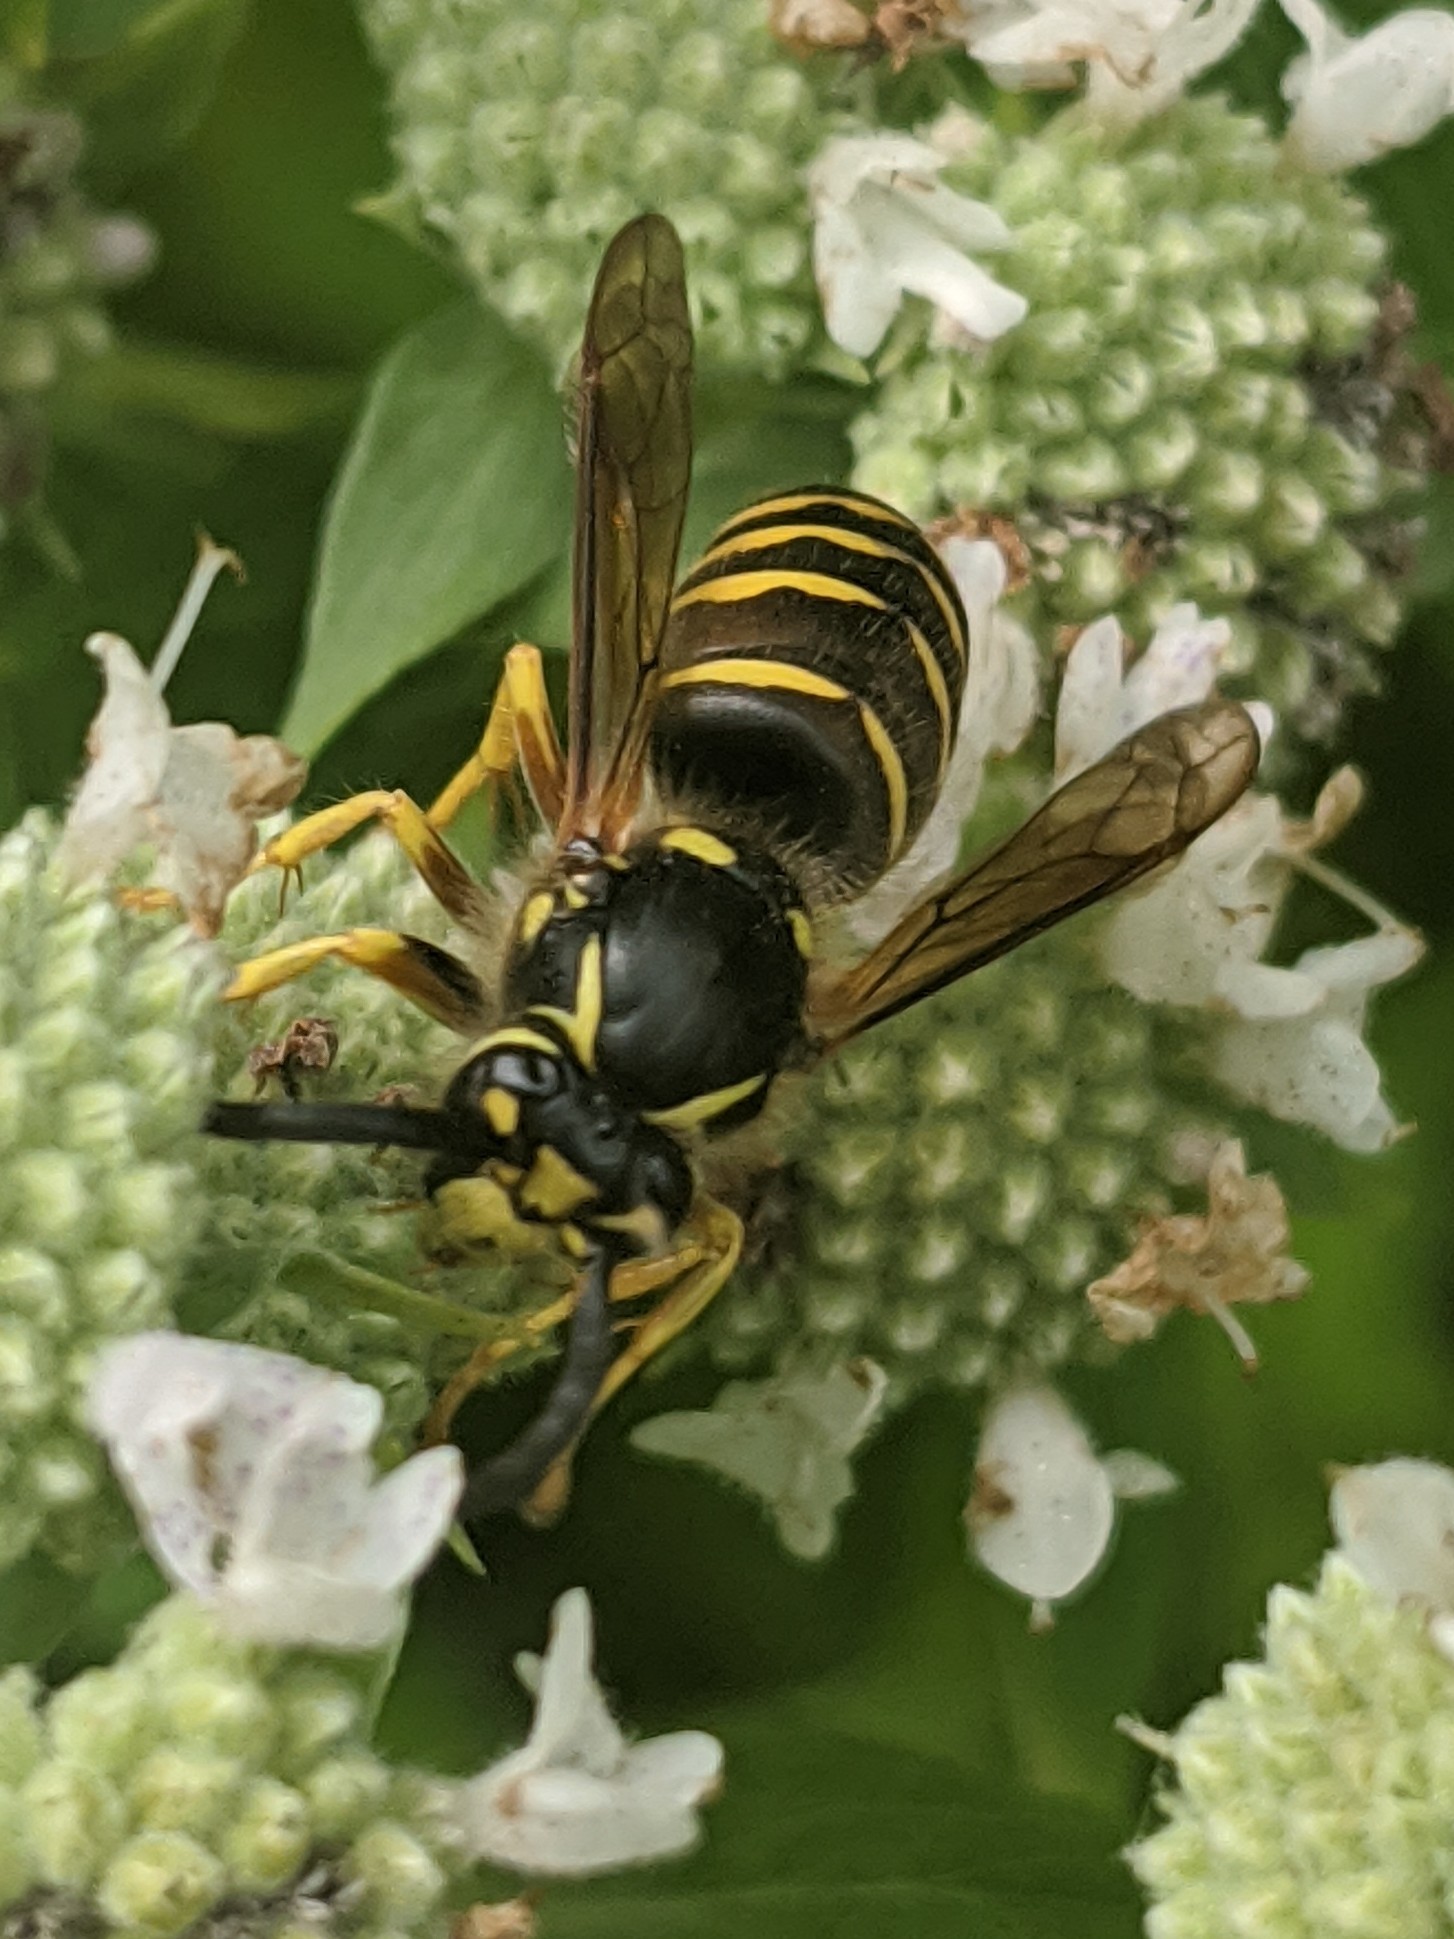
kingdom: Animalia
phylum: Arthropoda
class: Insecta
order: Hymenoptera
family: Vespidae
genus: Dolichovespula
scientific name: Dolichovespula arenaria
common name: Aerial yellowjacket
